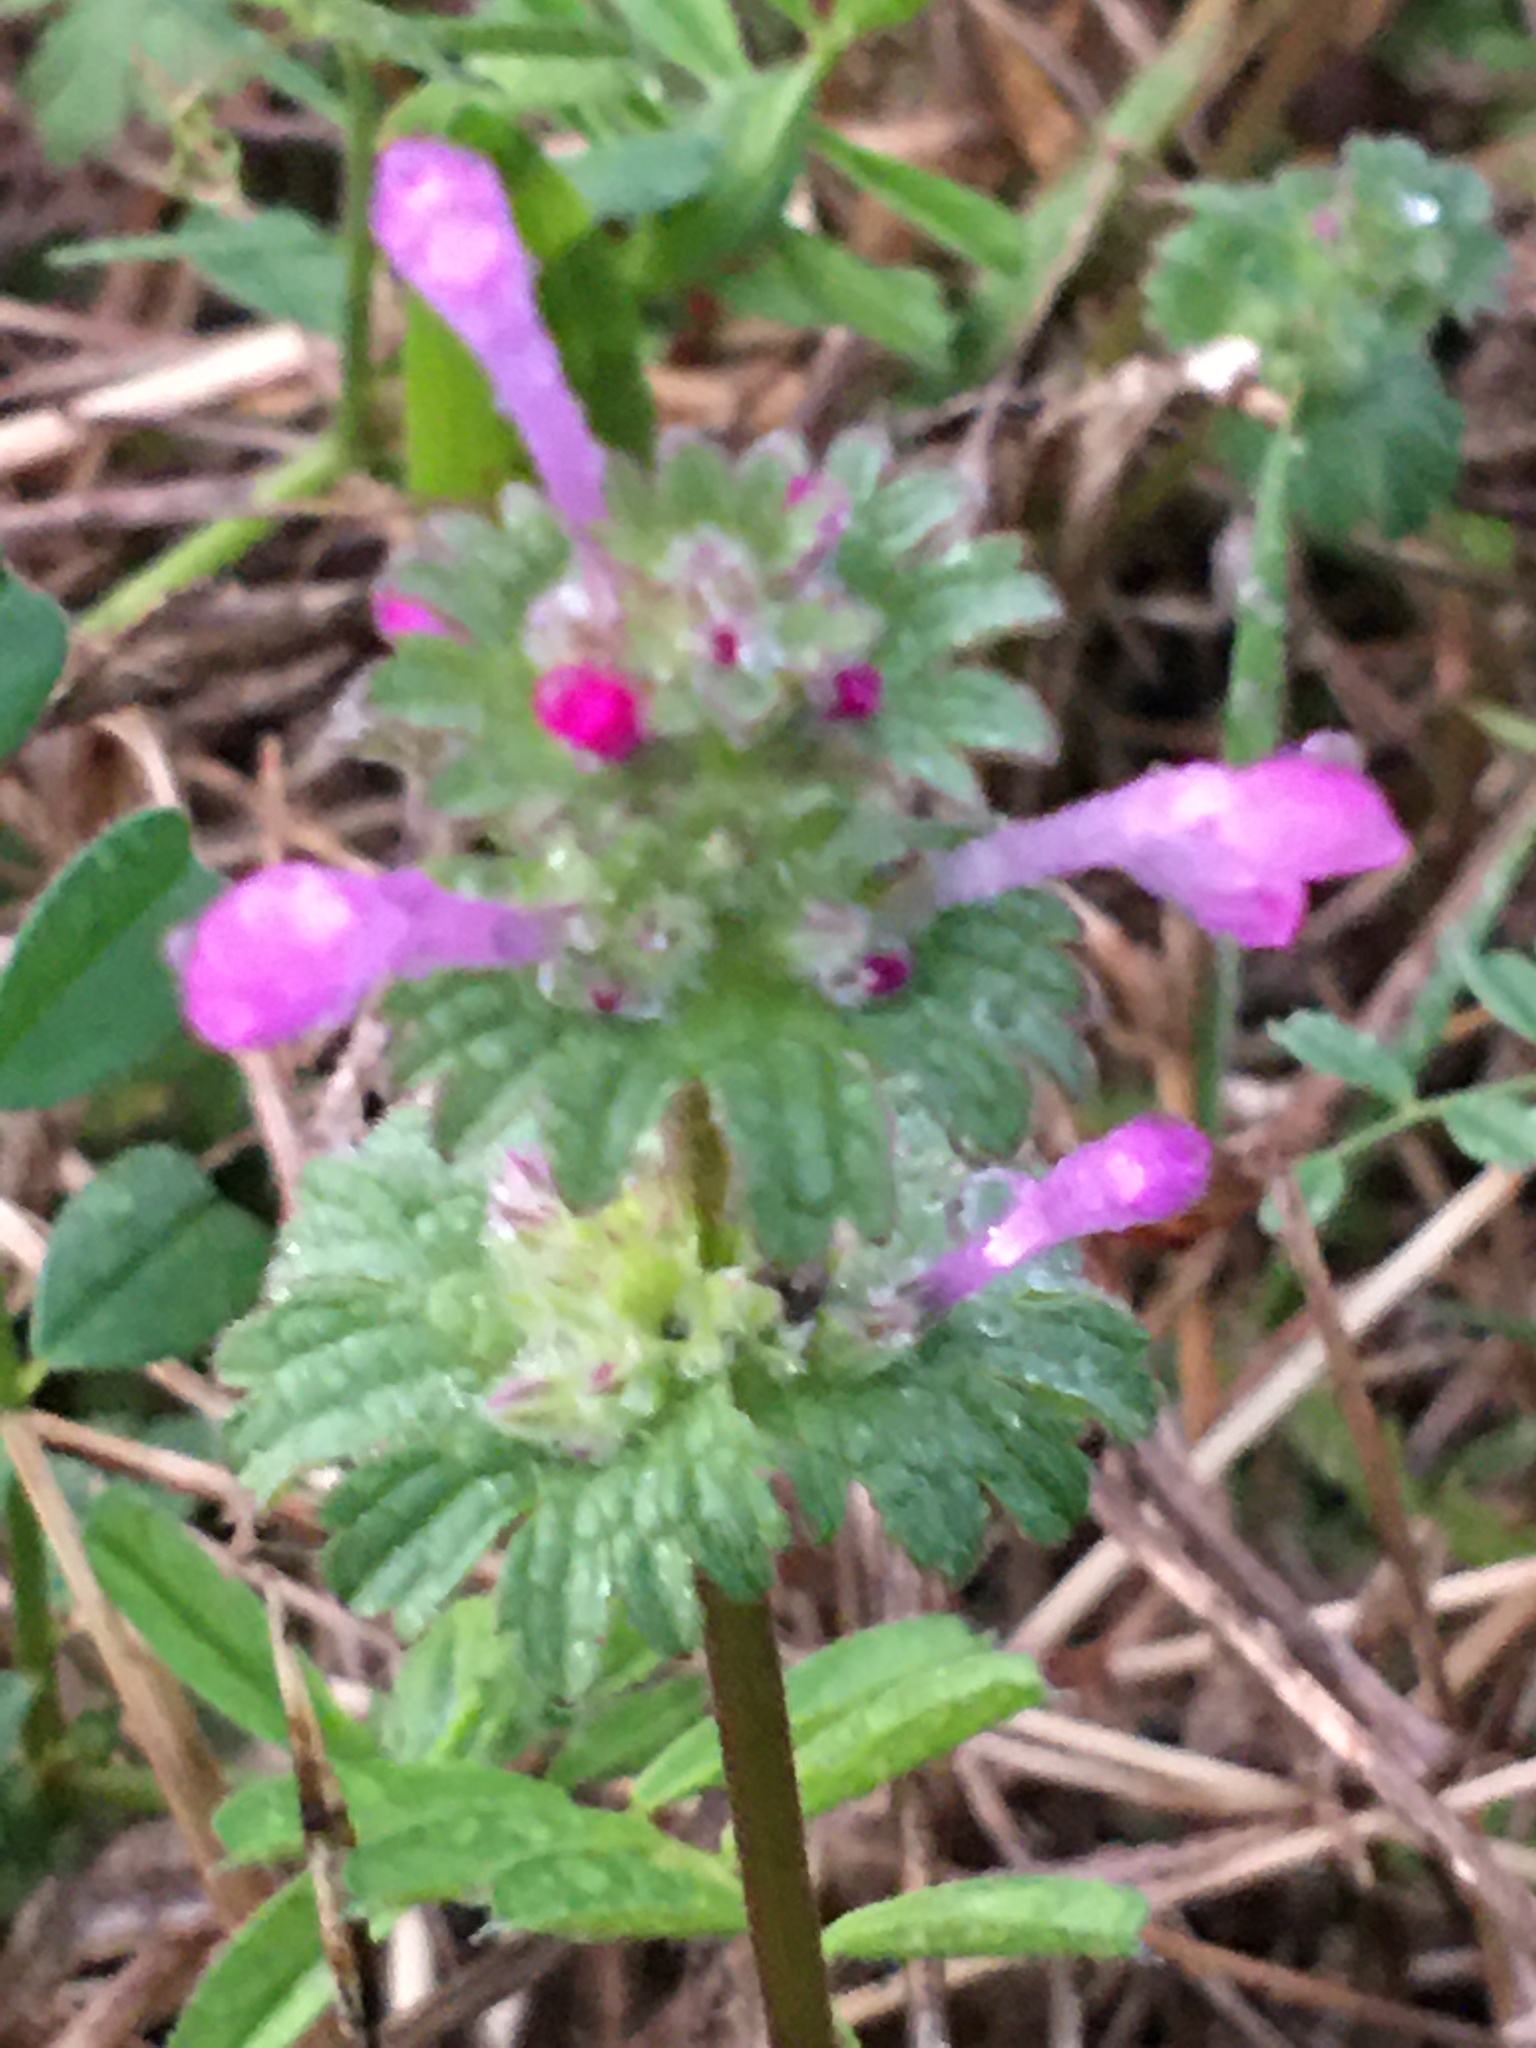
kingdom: Plantae
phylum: Tracheophyta
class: Magnoliopsida
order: Lamiales
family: Lamiaceae
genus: Lamium
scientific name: Lamium amplexicaule
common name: Henbit dead-nettle
